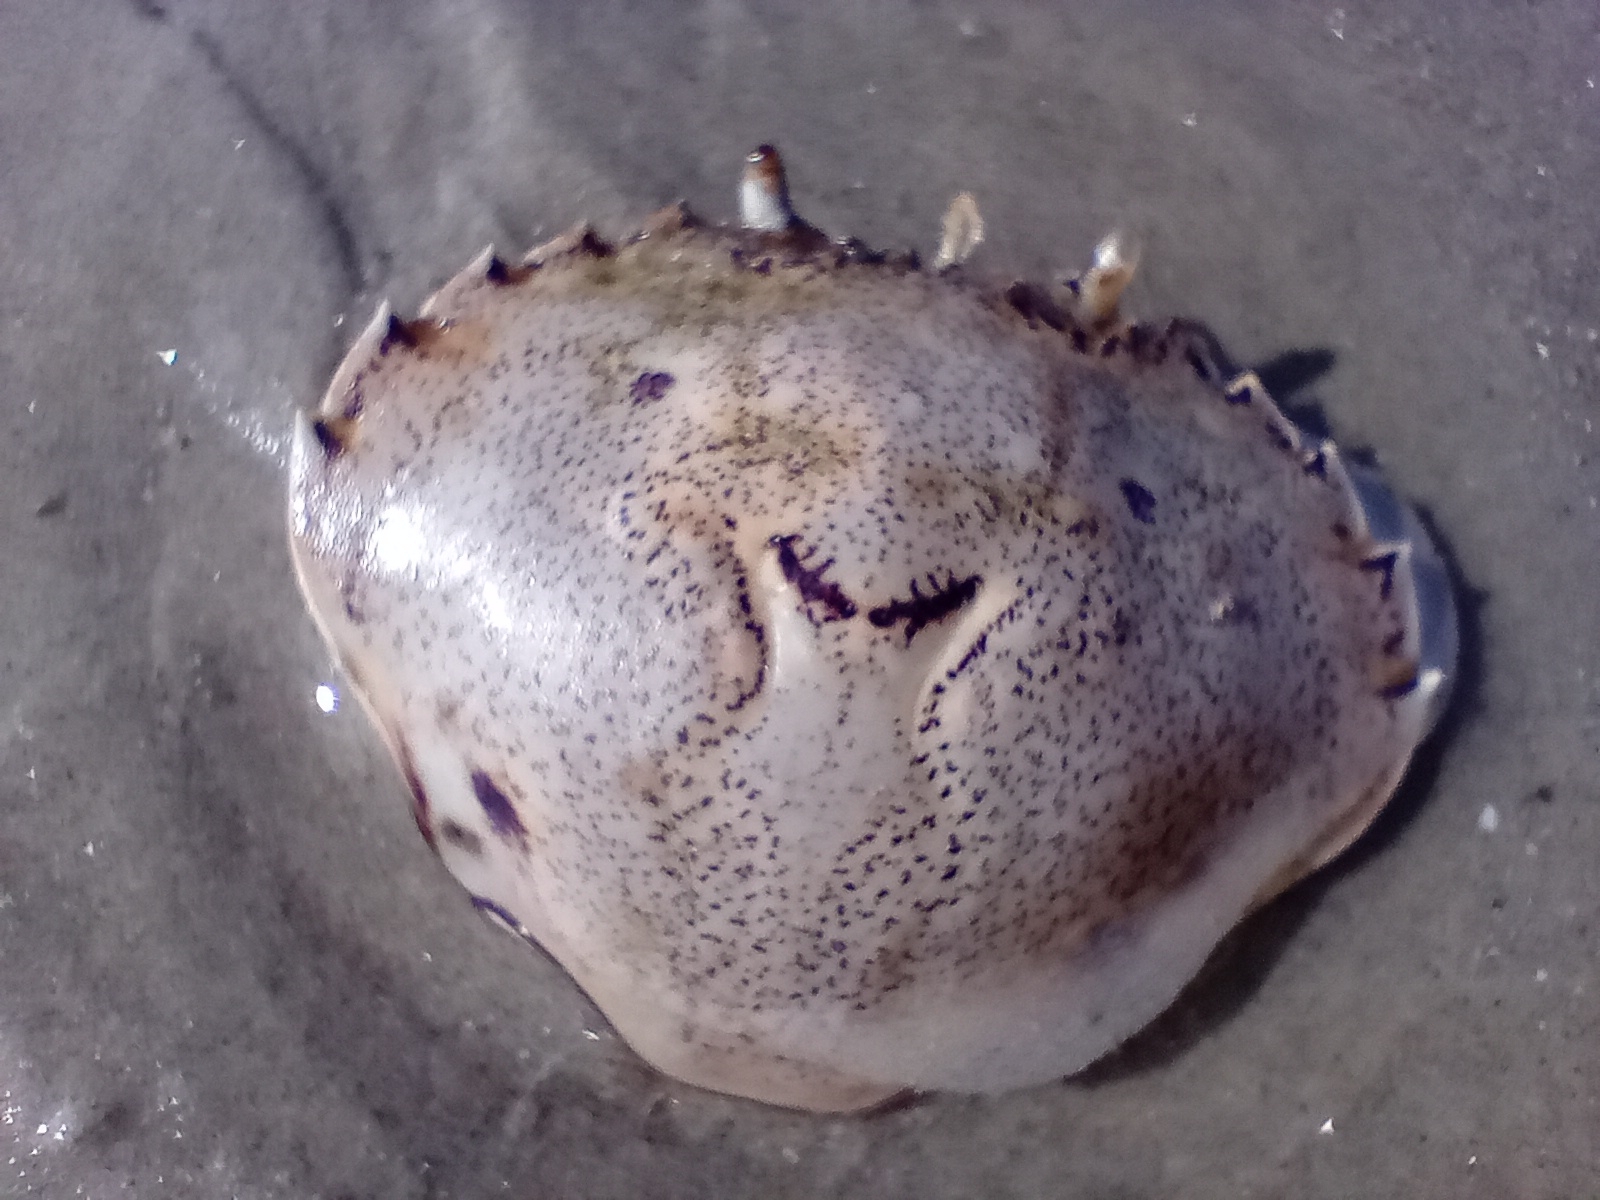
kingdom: Animalia
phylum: Arthropoda
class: Malacostraca
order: Decapoda
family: Ovalipidae
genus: Ovalipes
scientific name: Ovalipes catharus
